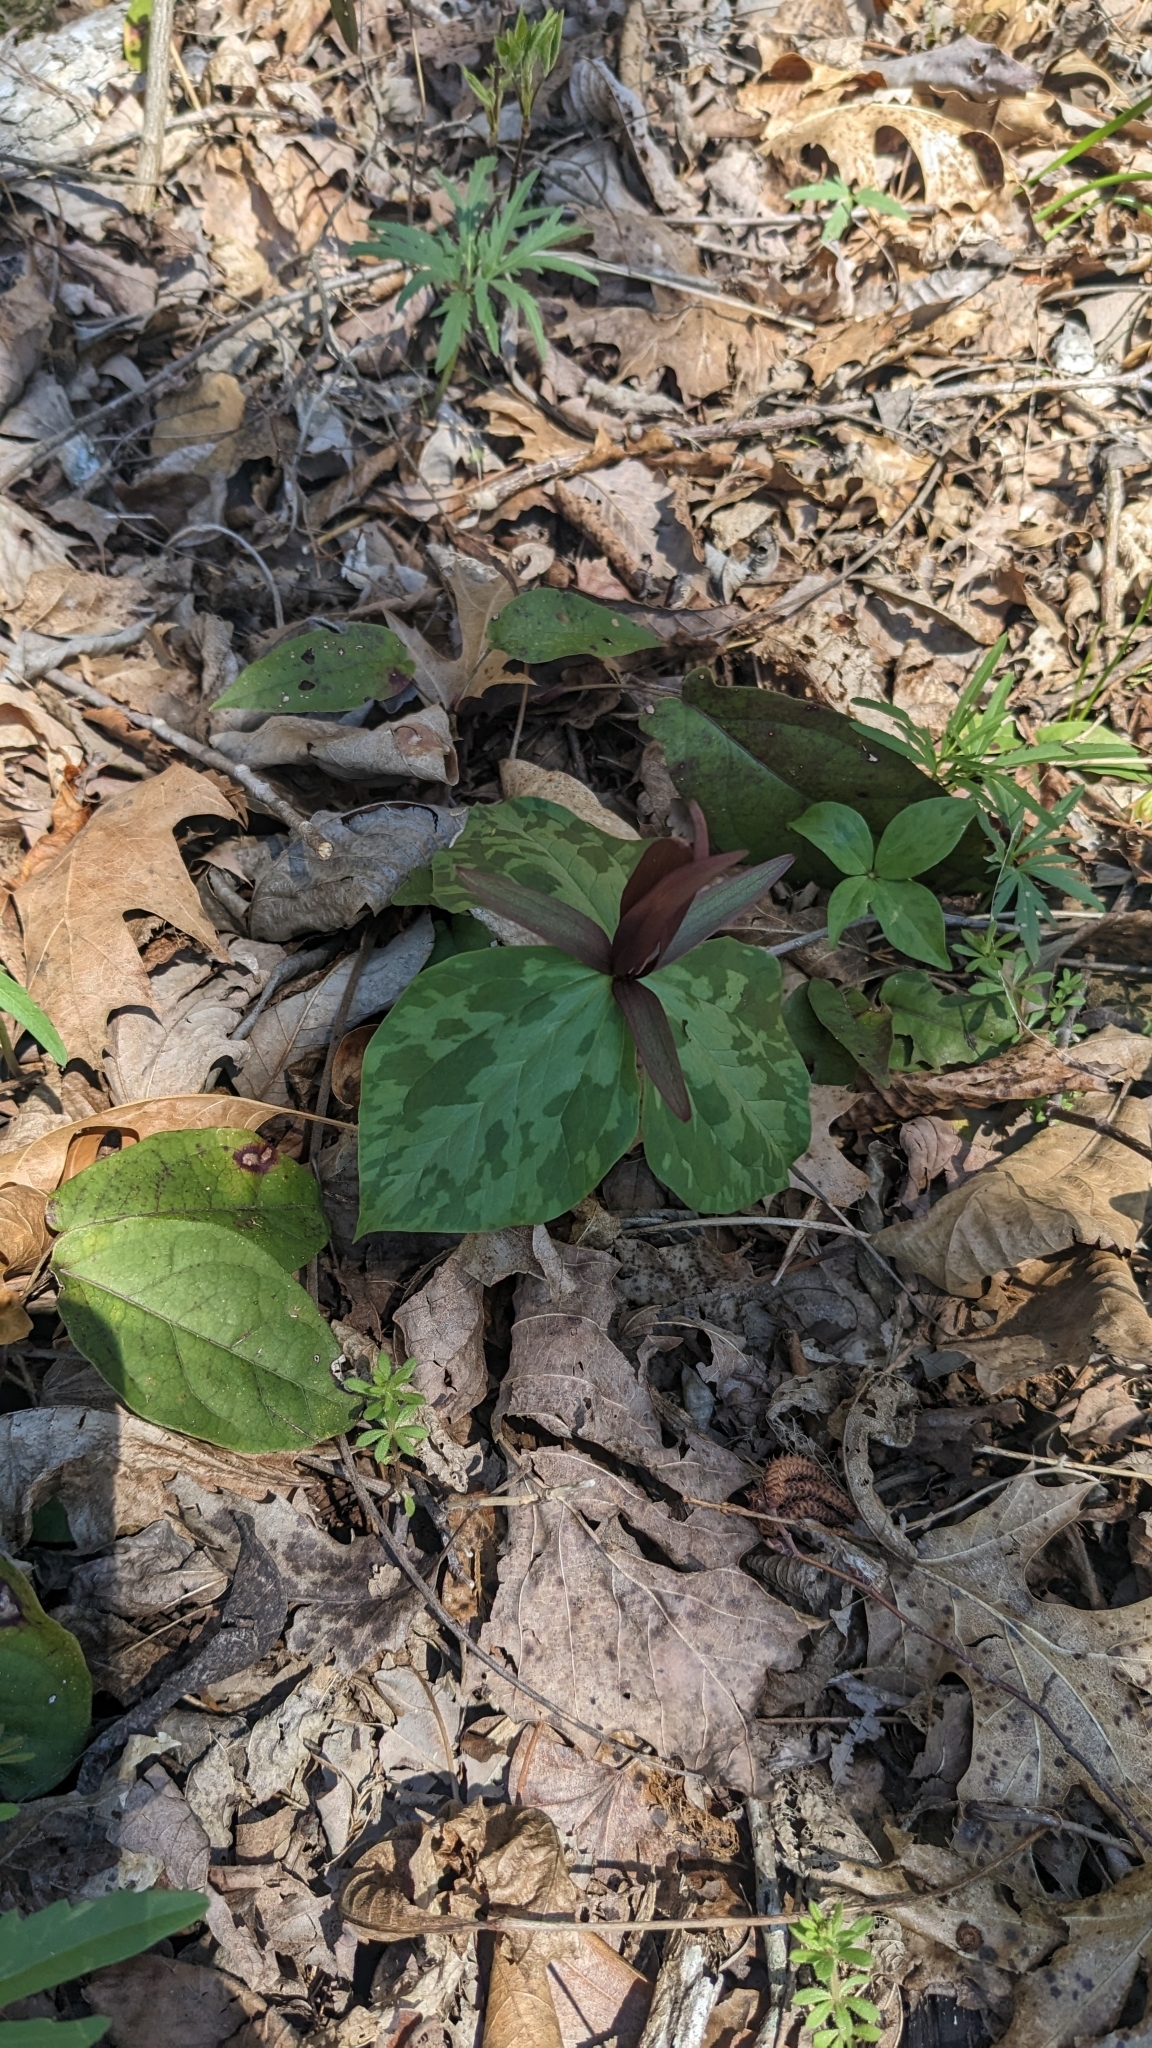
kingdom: Plantae
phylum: Tracheophyta
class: Liliopsida
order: Liliales
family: Melanthiaceae
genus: Trillium
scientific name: Trillium cuneatum
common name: Cuneate trillium
